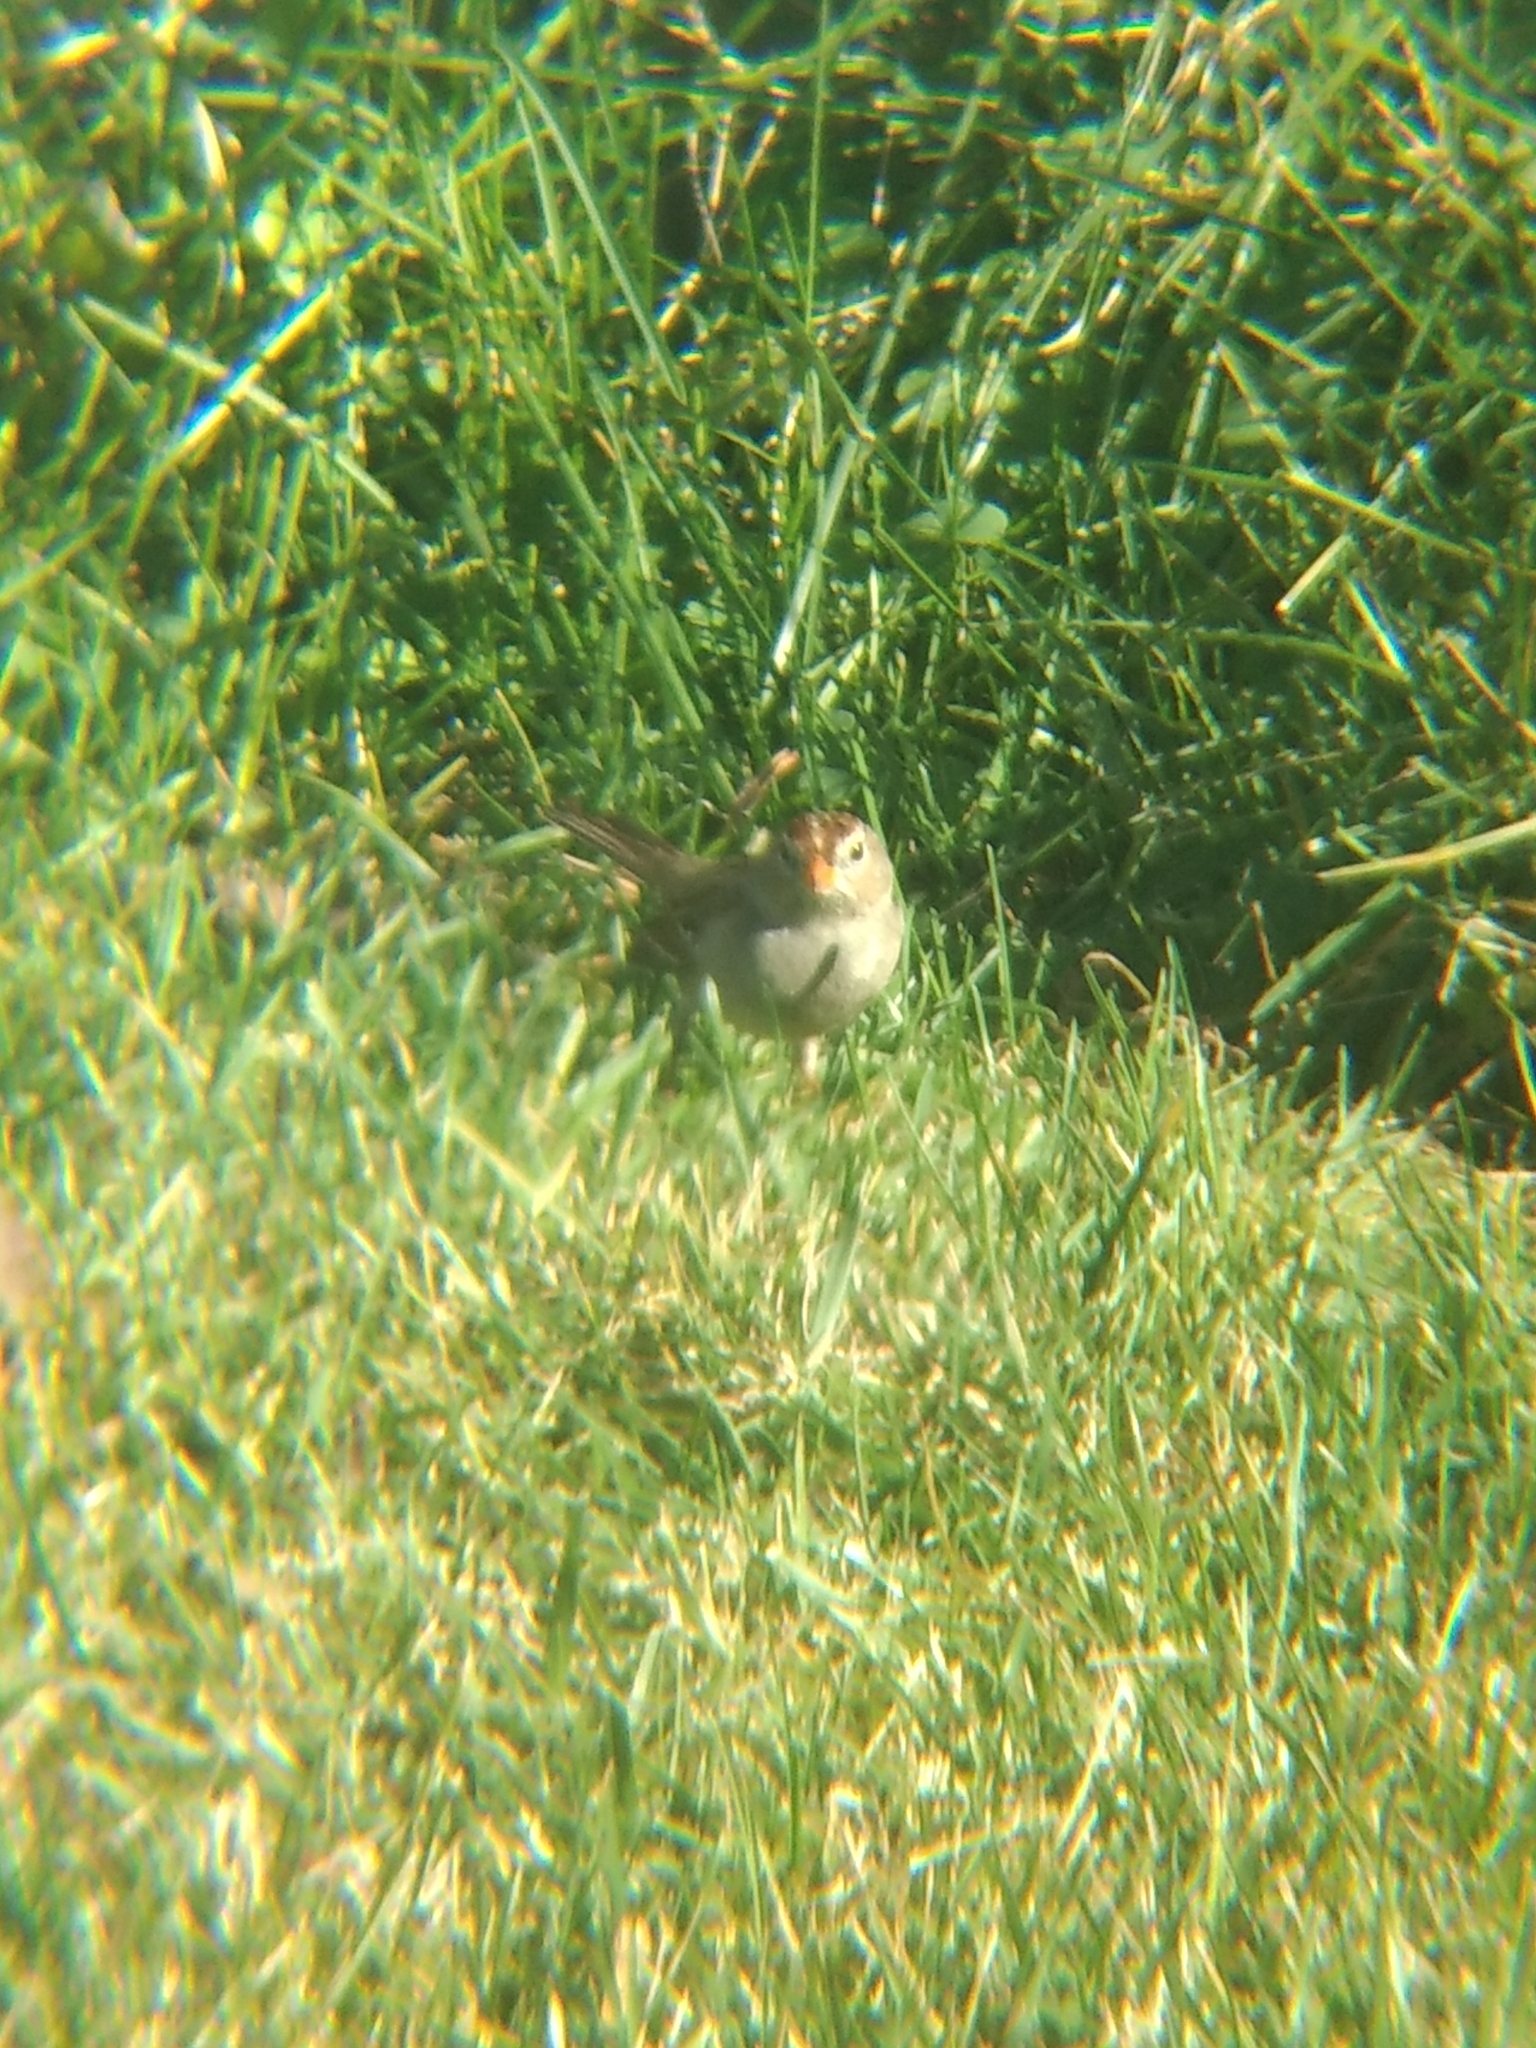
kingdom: Animalia
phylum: Chordata
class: Aves
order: Passeriformes
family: Passerellidae
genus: Zonotrichia
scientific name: Zonotrichia leucophrys
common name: White-crowned sparrow
